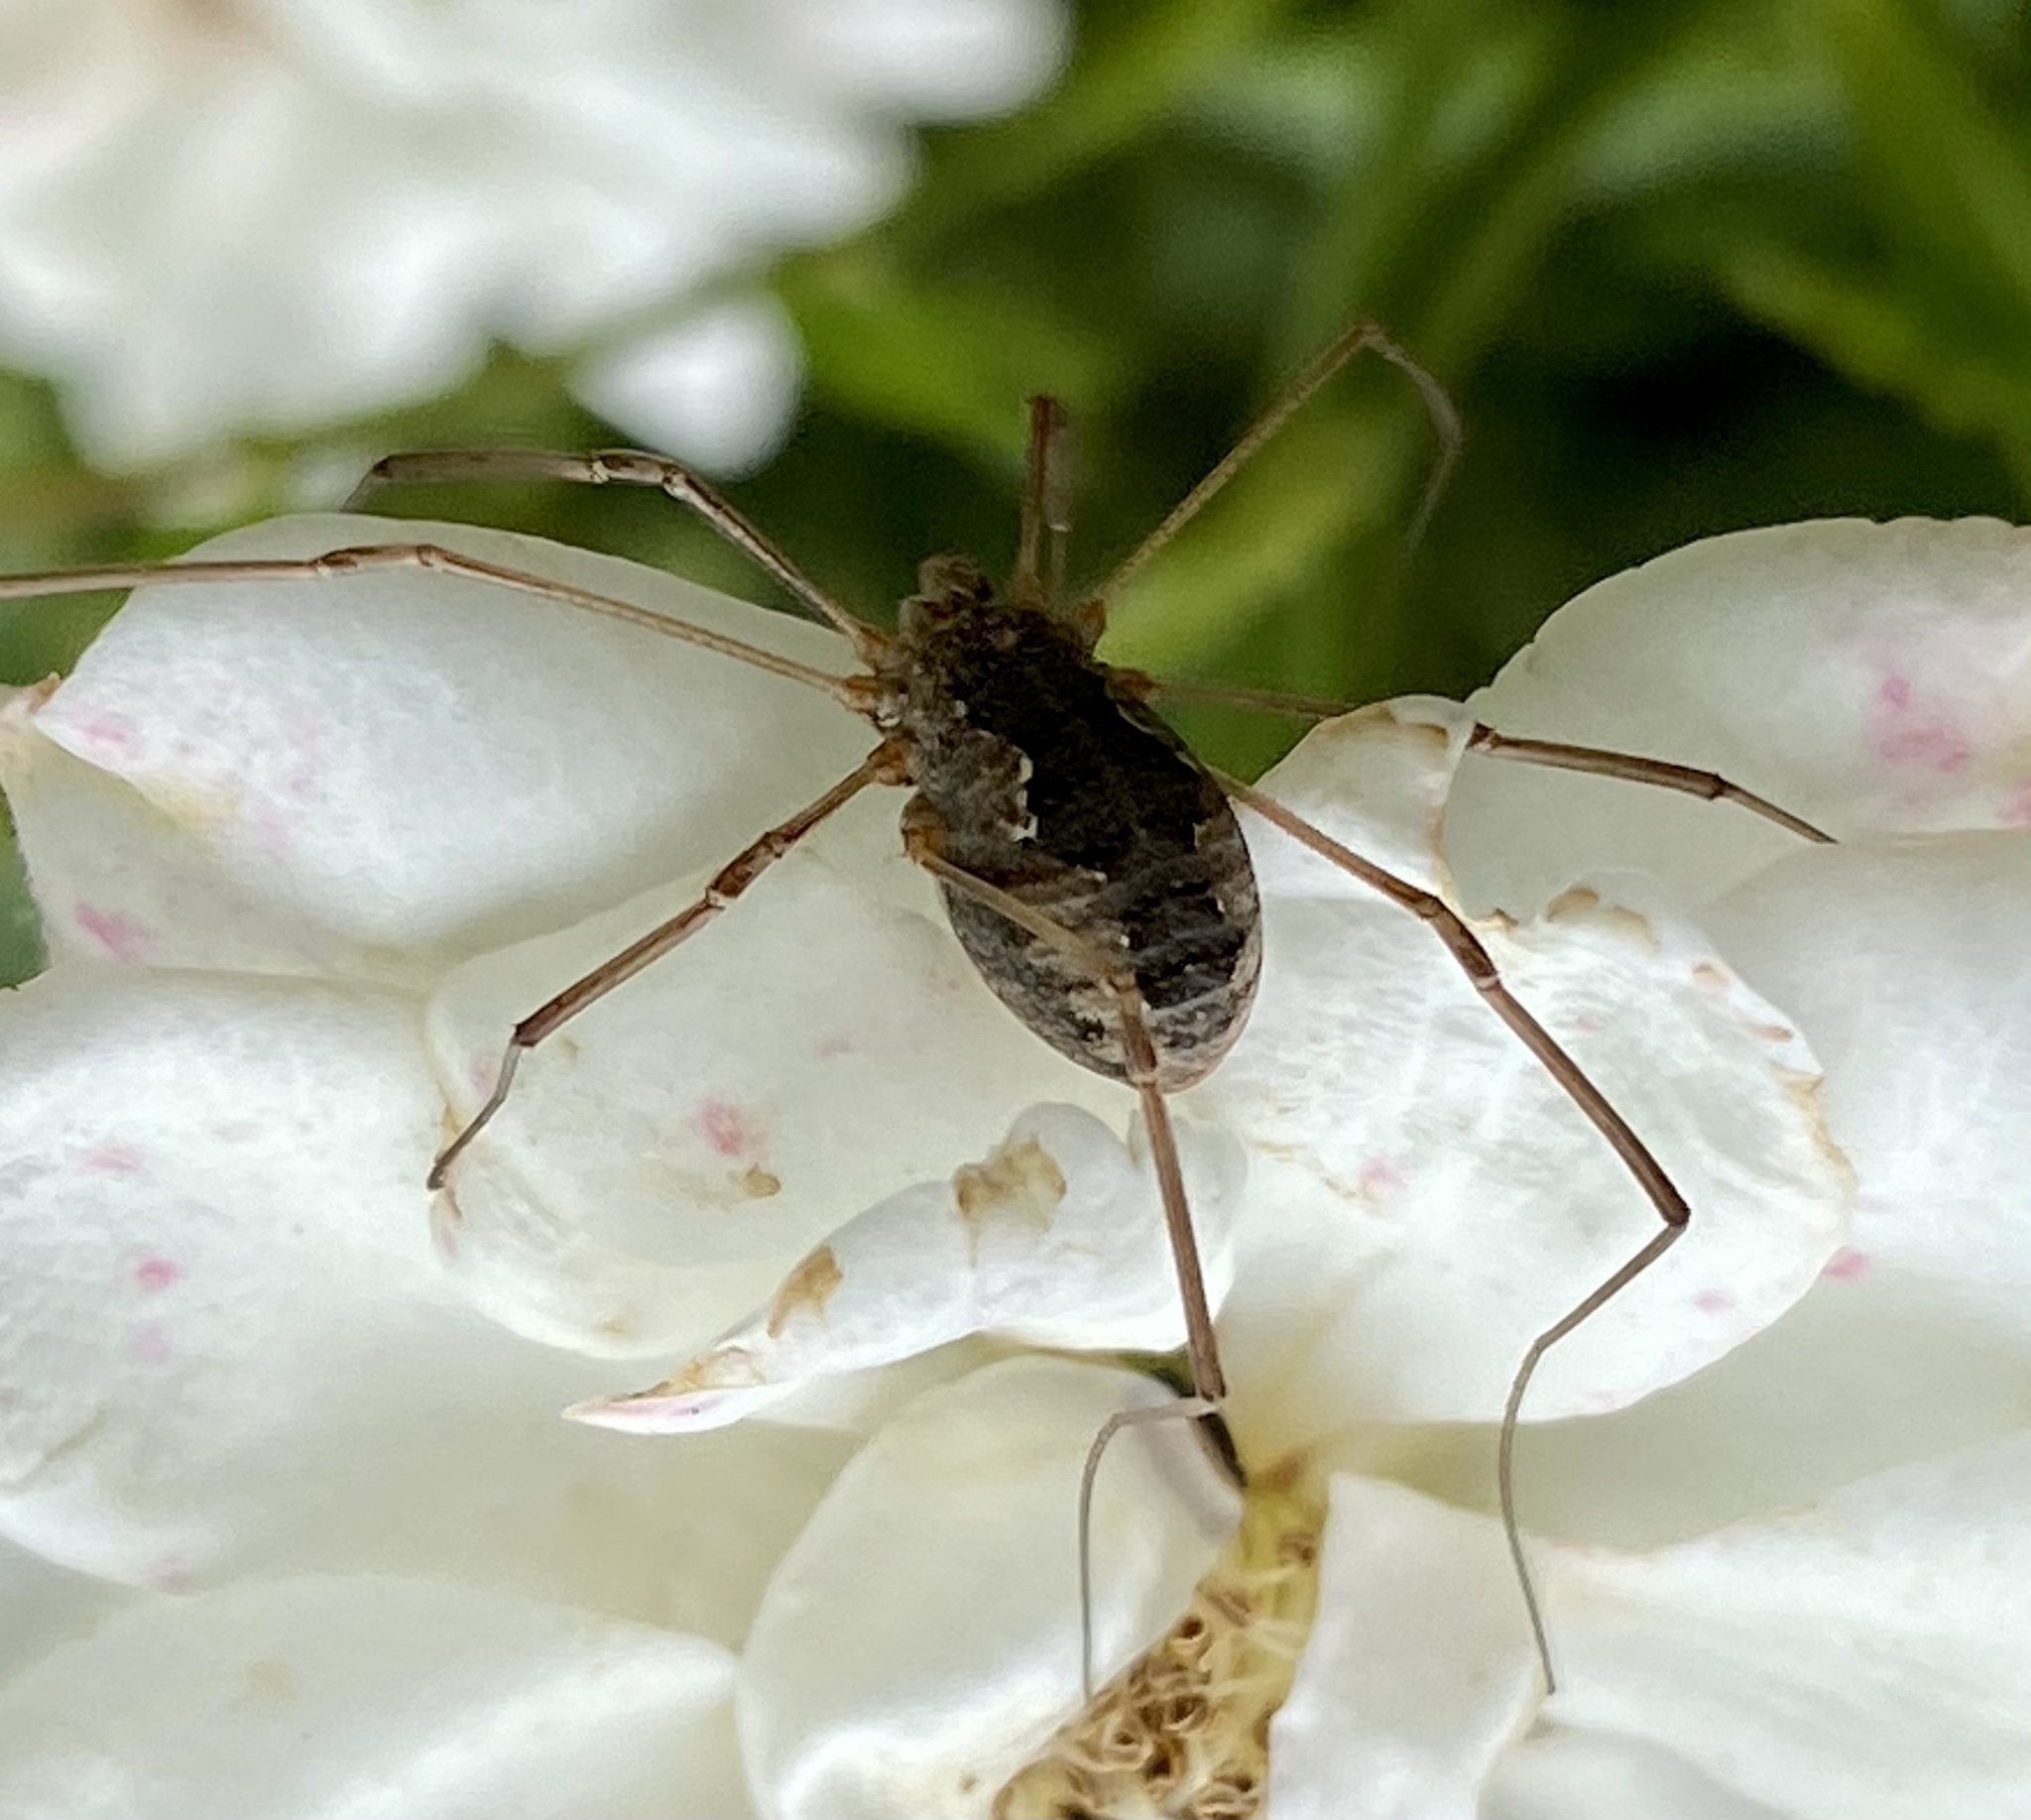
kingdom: Animalia
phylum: Arthropoda
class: Arachnida
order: Opiliones
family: Phalangiidae
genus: Phalangium
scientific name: Phalangium opilio
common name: Daddy longleg
